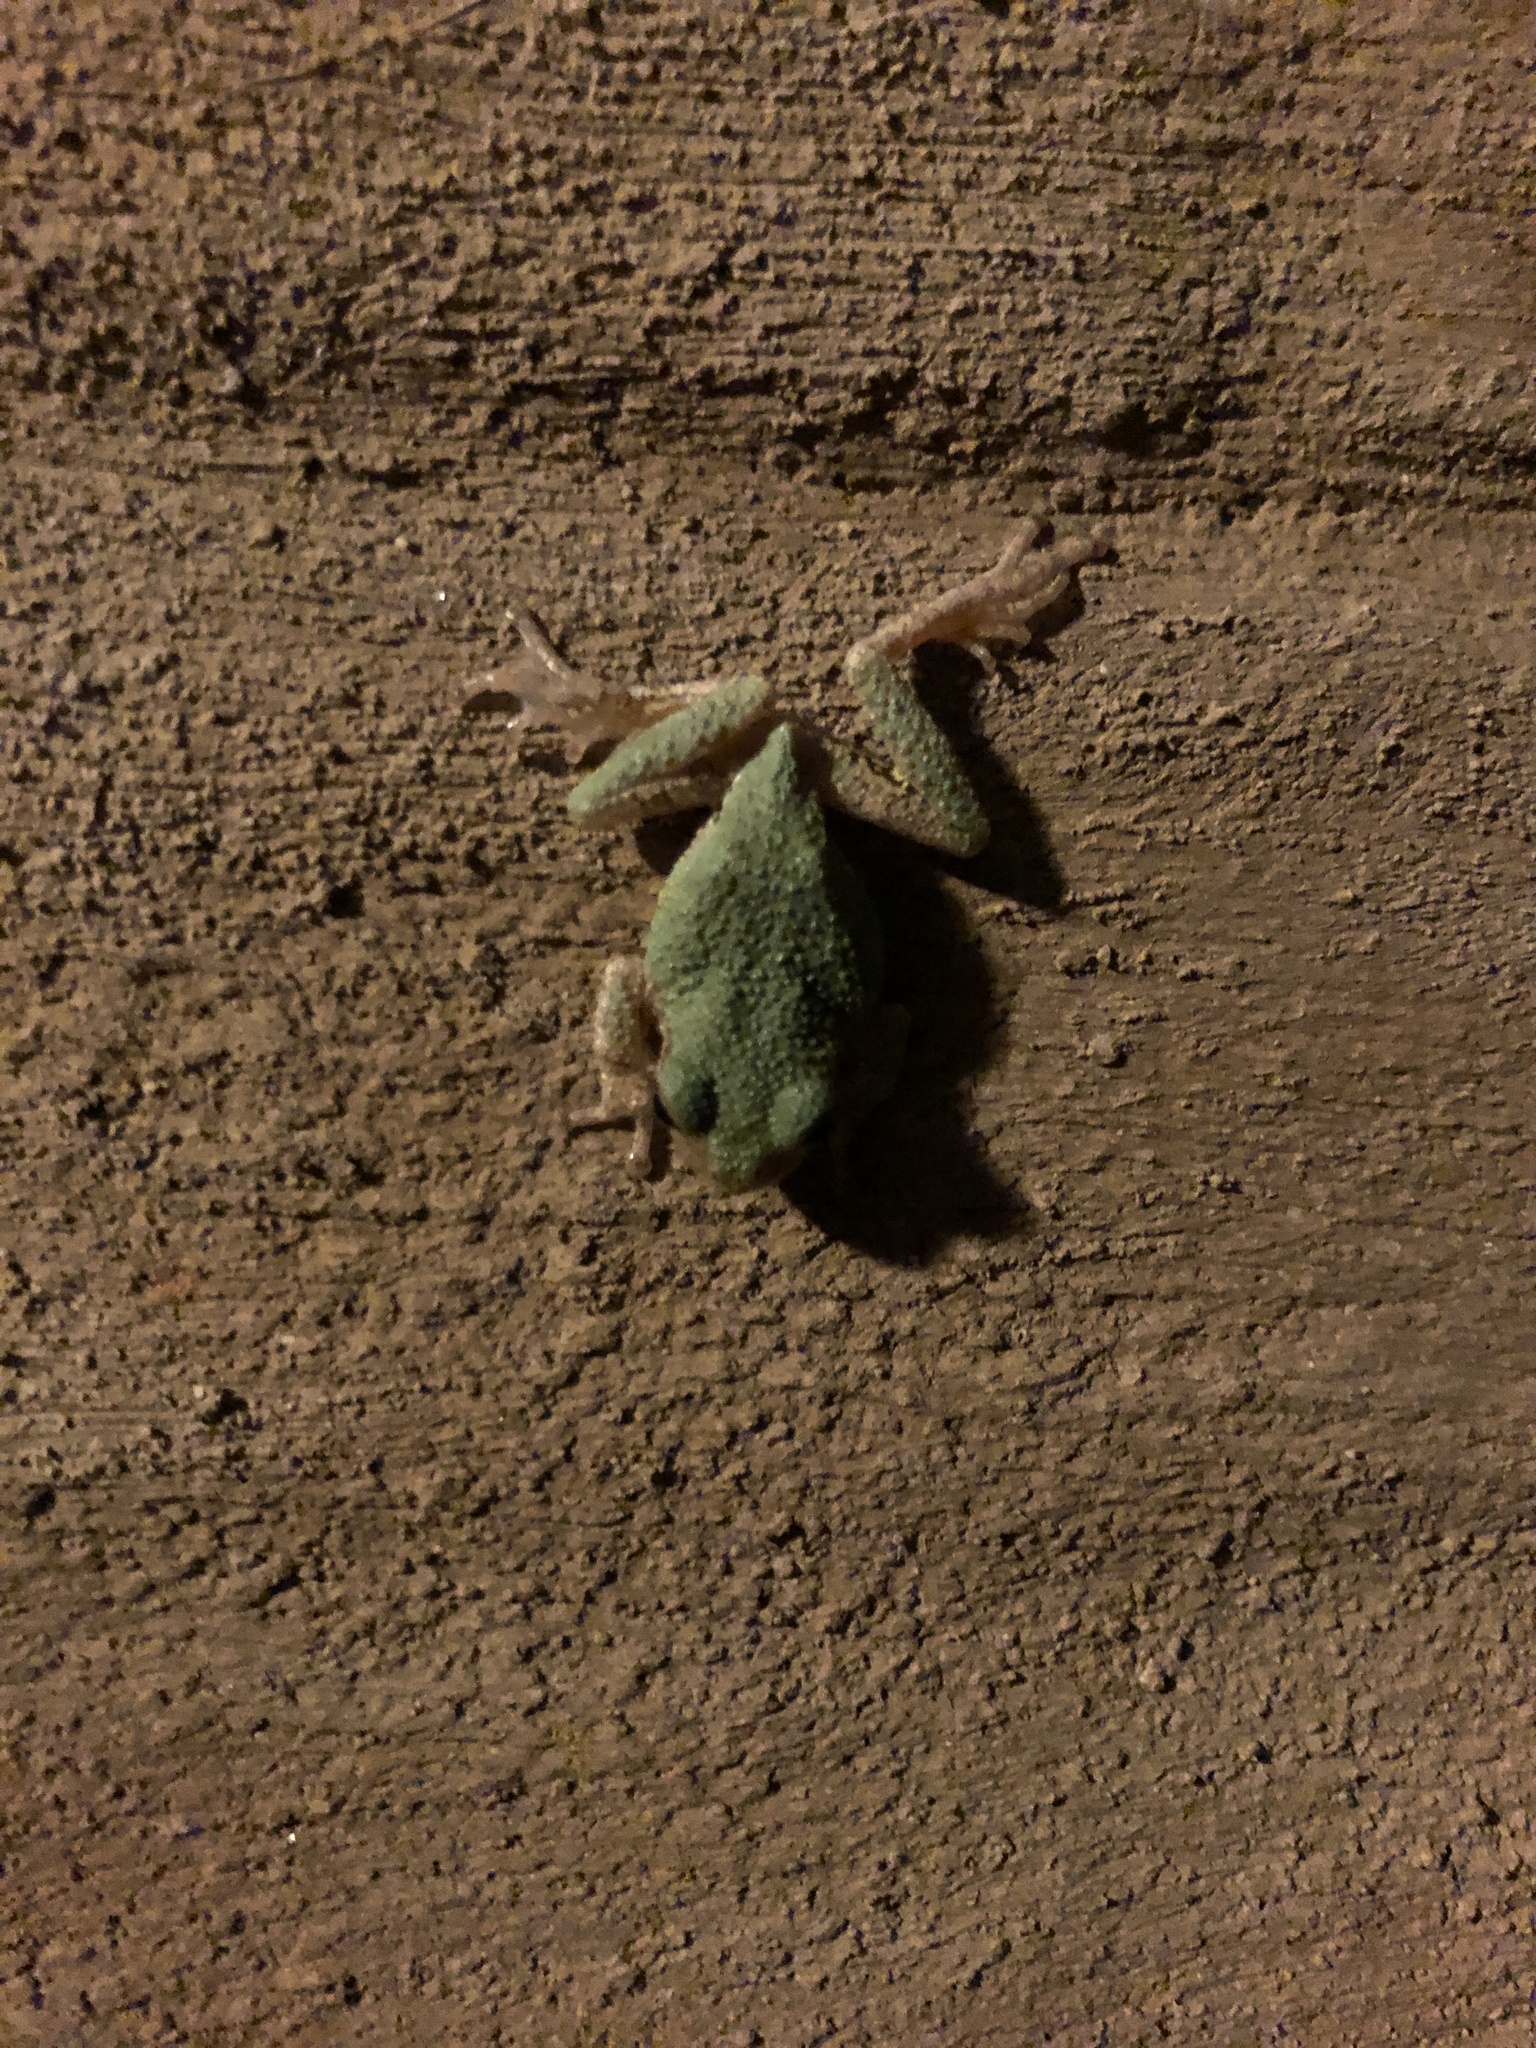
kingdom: Animalia
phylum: Chordata
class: Amphibia
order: Anura
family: Hylidae
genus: Dryophytes
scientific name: Dryophytes chrysoscelis
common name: Cope's gray treefrog
